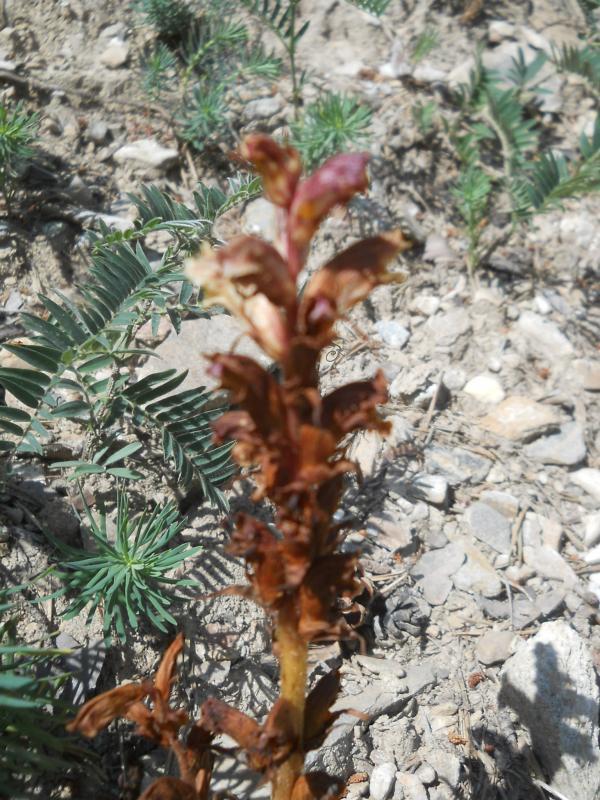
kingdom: Plantae
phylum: Tracheophyta
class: Magnoliopsida
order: Lamiales
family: Orobanchaceae
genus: Orobanche
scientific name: Orobanche alba
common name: Thyme broomrape
